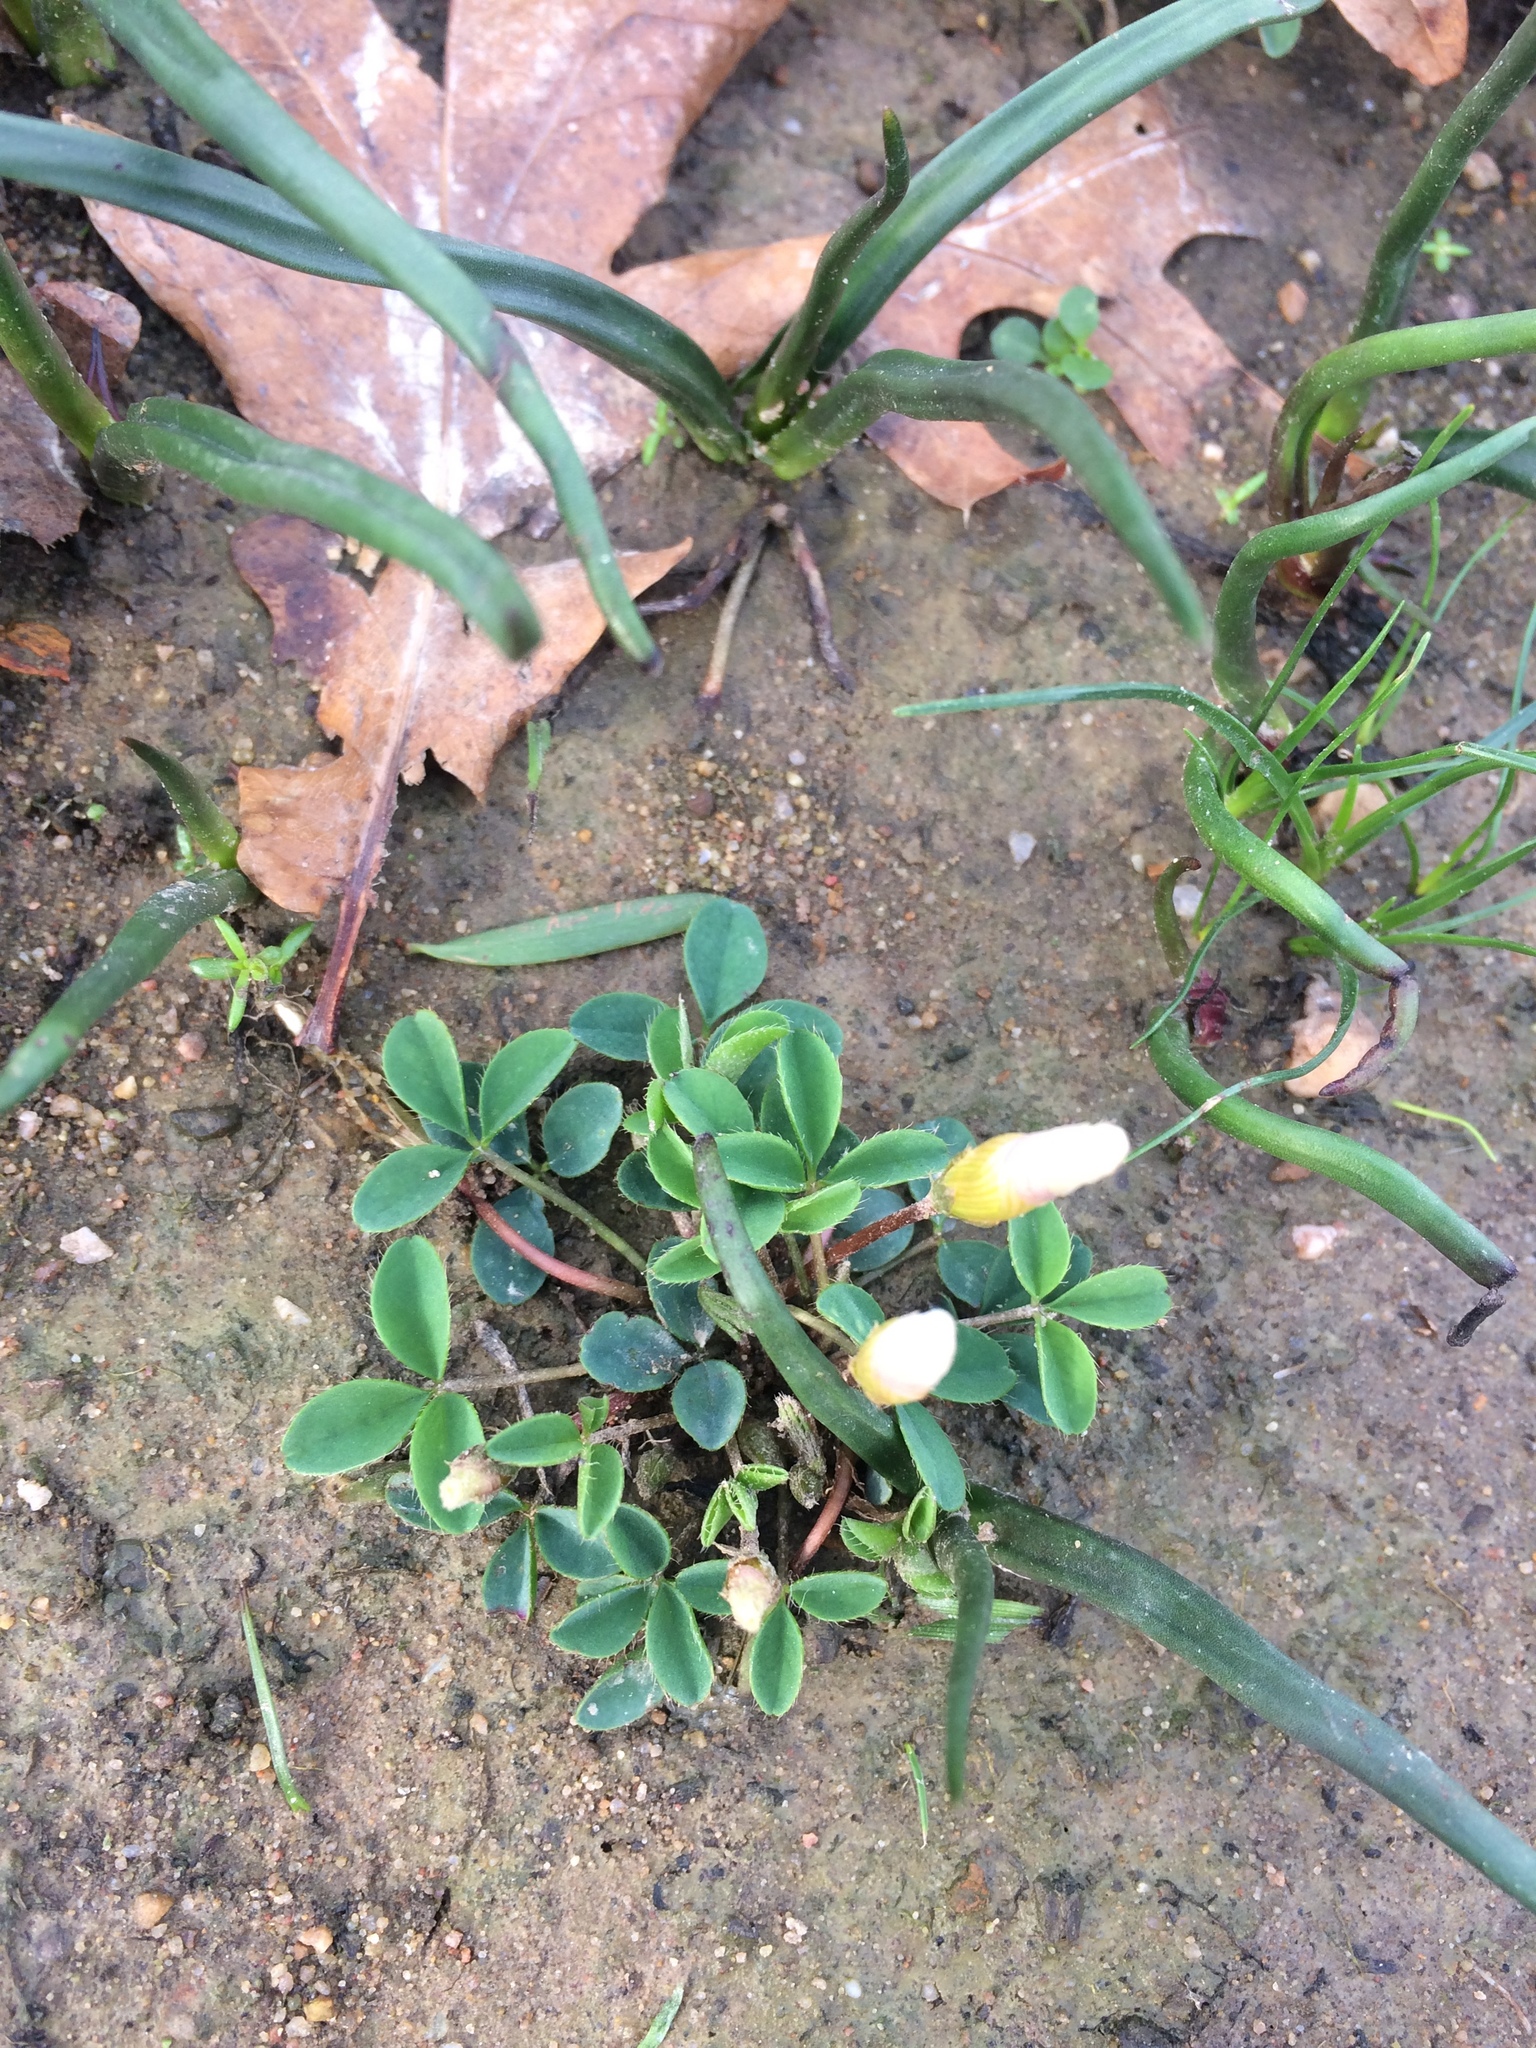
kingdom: Plantae
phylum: Tracheophyta
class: Magnoliopsida
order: Oxalidales
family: Oxalidaceae
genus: Oxalis
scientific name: Oxalis minuta
